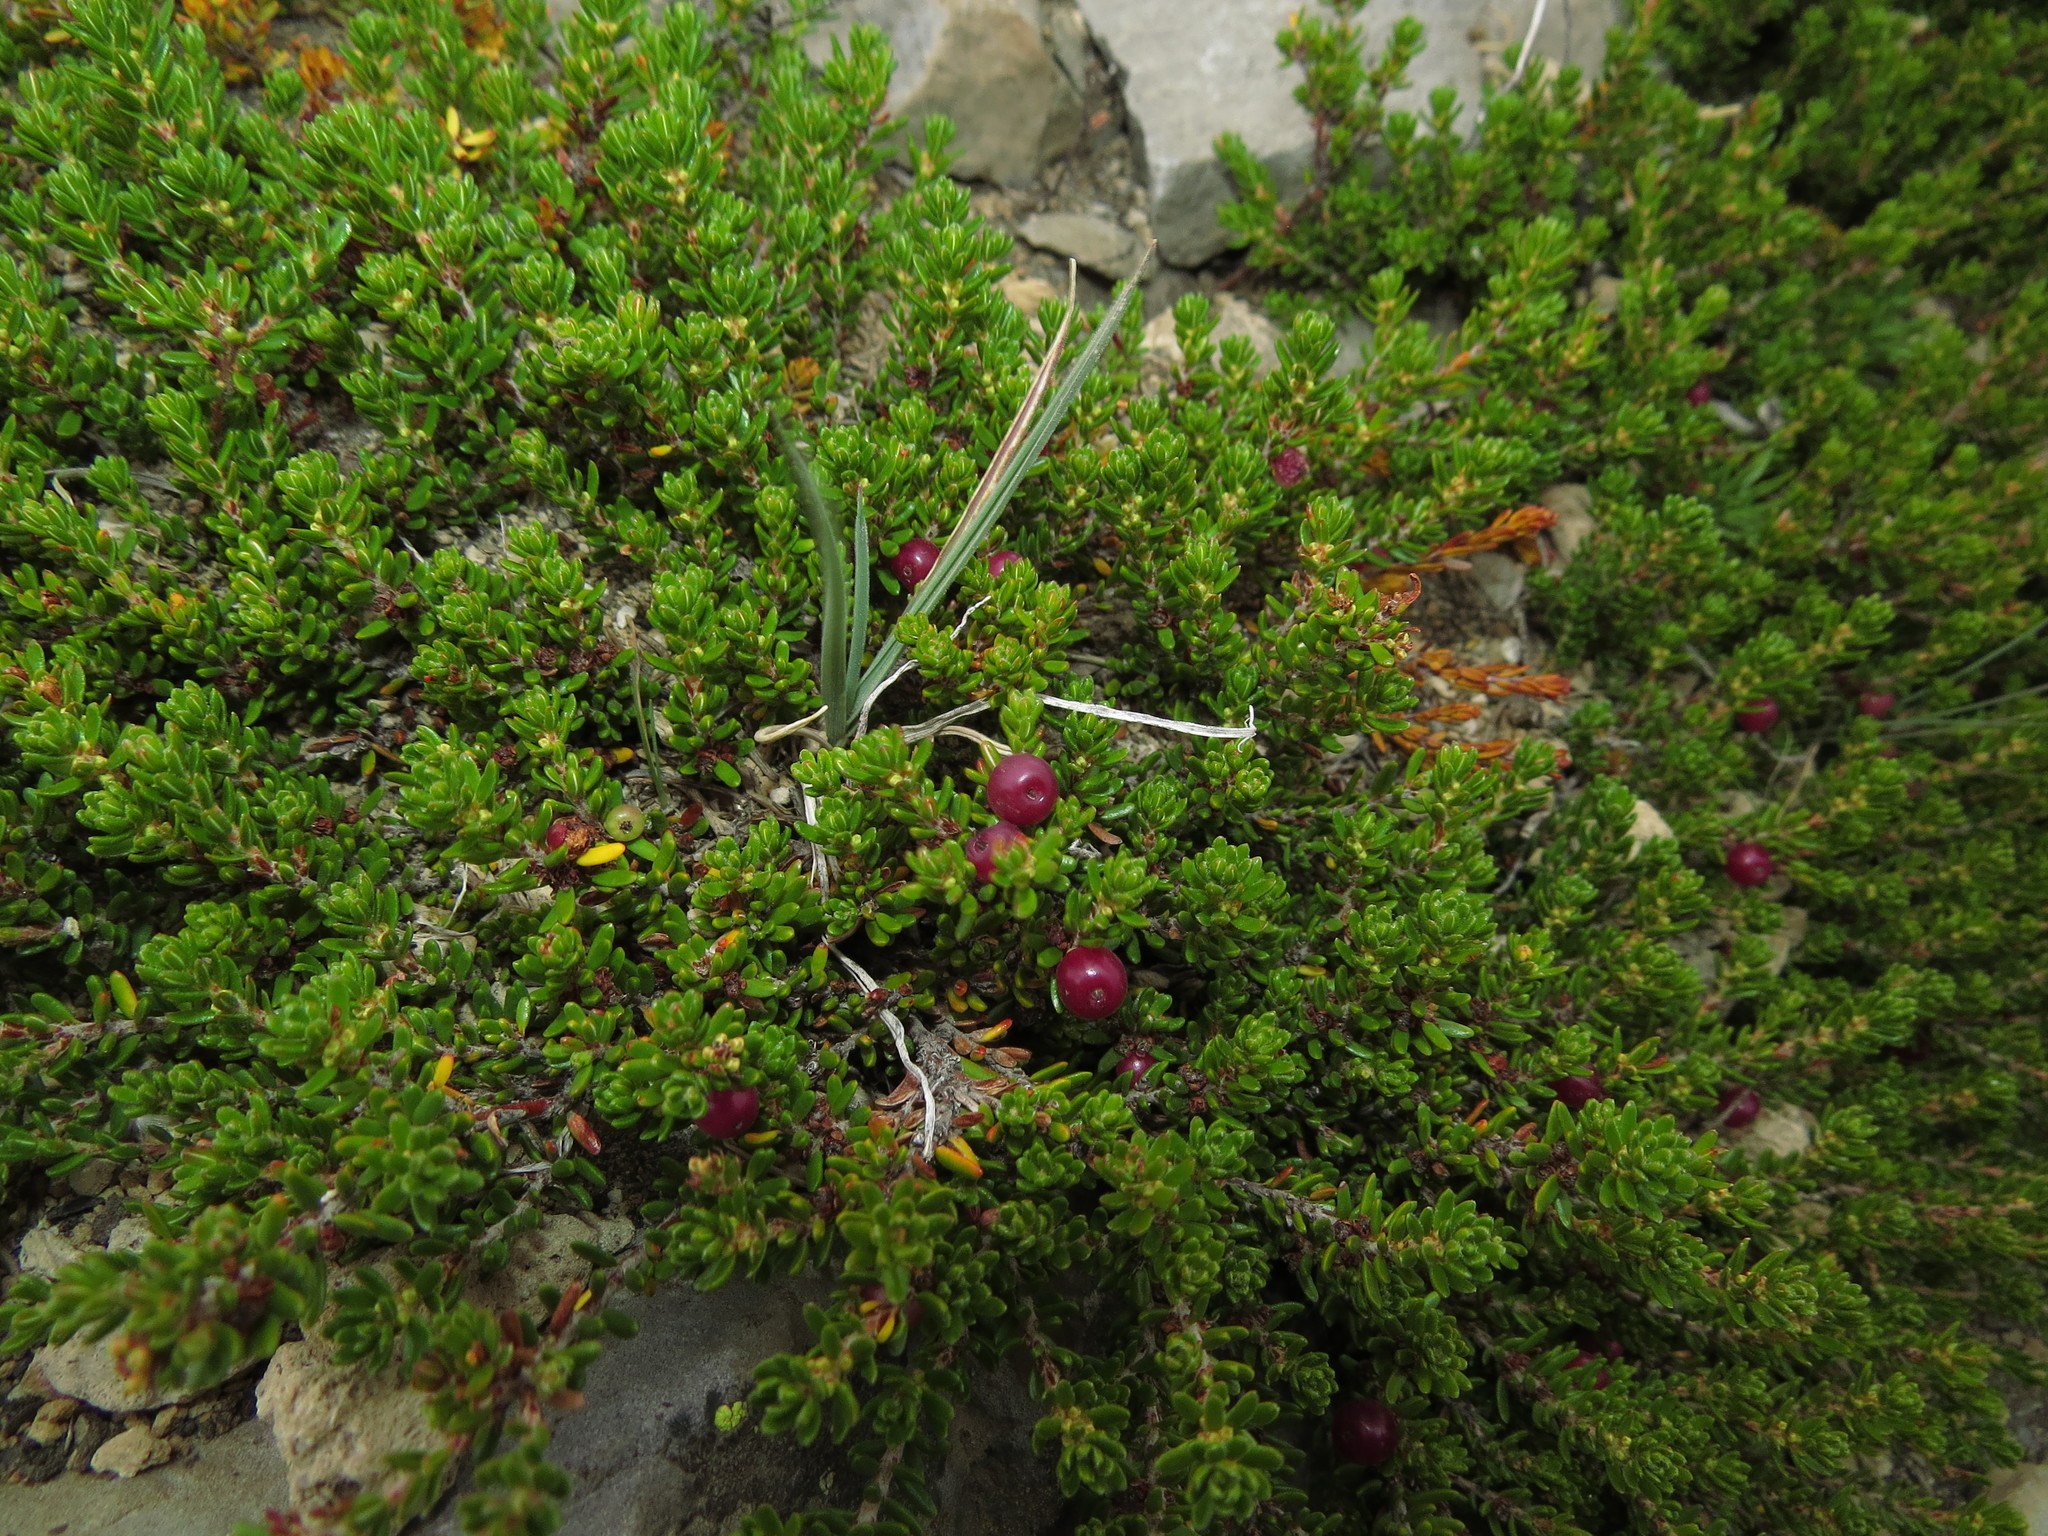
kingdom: Plantae
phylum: Tracheophyta
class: Magnoliopsida
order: Ericales
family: Ericaceae
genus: Empetrum
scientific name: Empetrum rubrum
